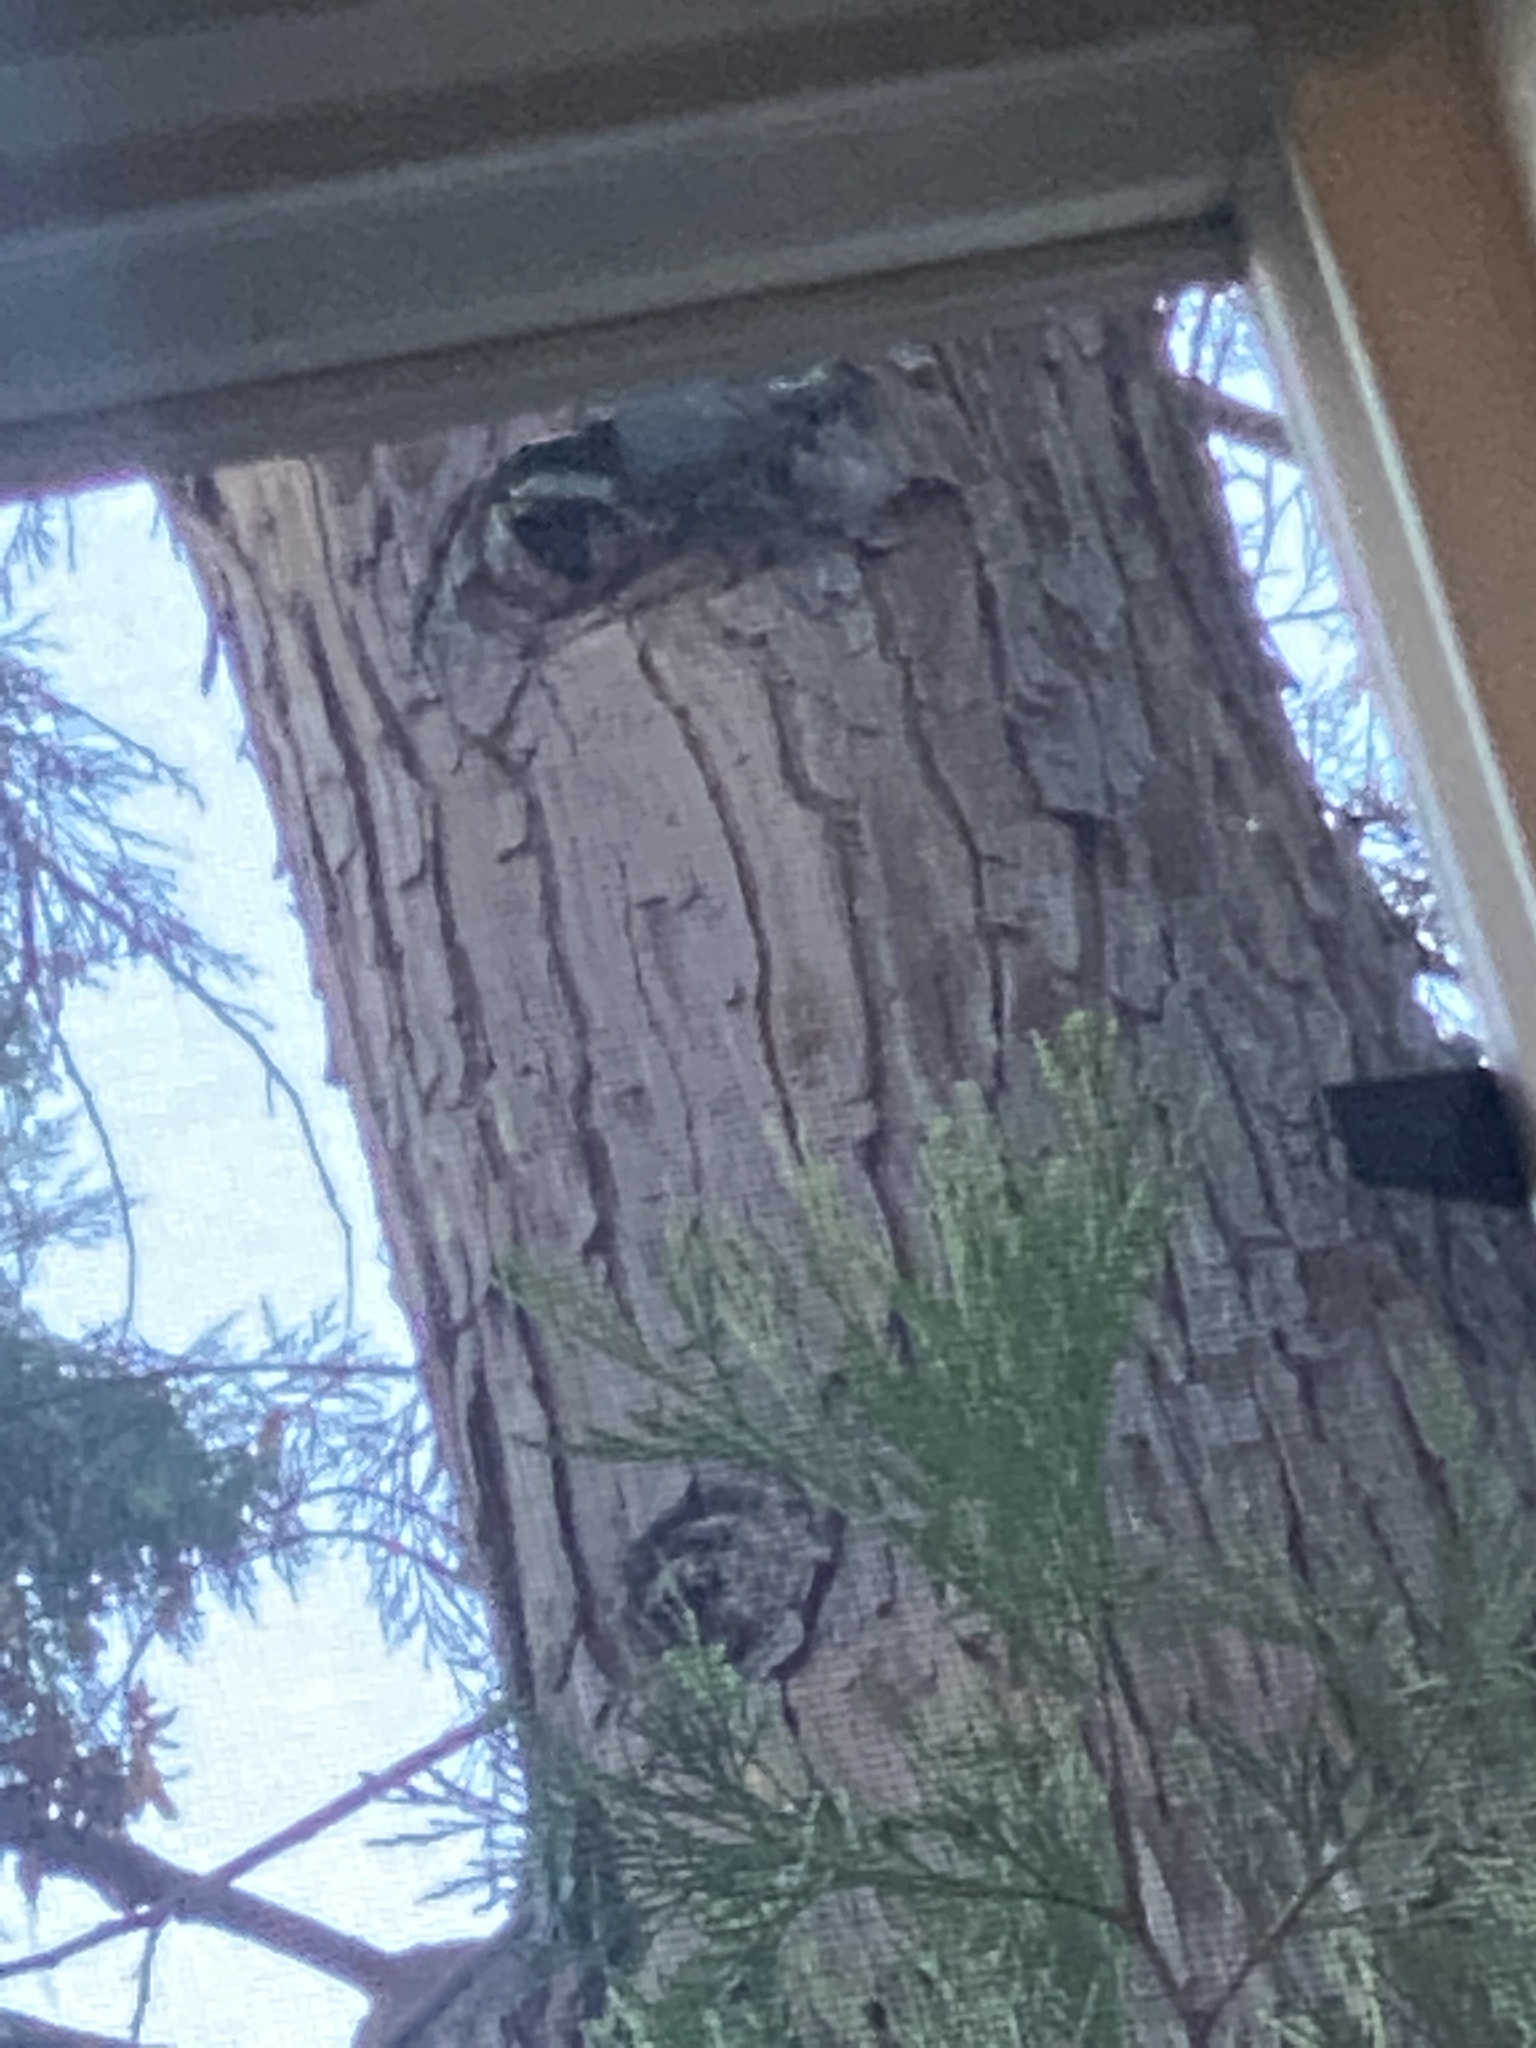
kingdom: Animalia
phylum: Chordata
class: Aves
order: Passeriformes
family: Sittidae
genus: Sitta
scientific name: Sitta carolinensis
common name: White-breasted nuthatch
